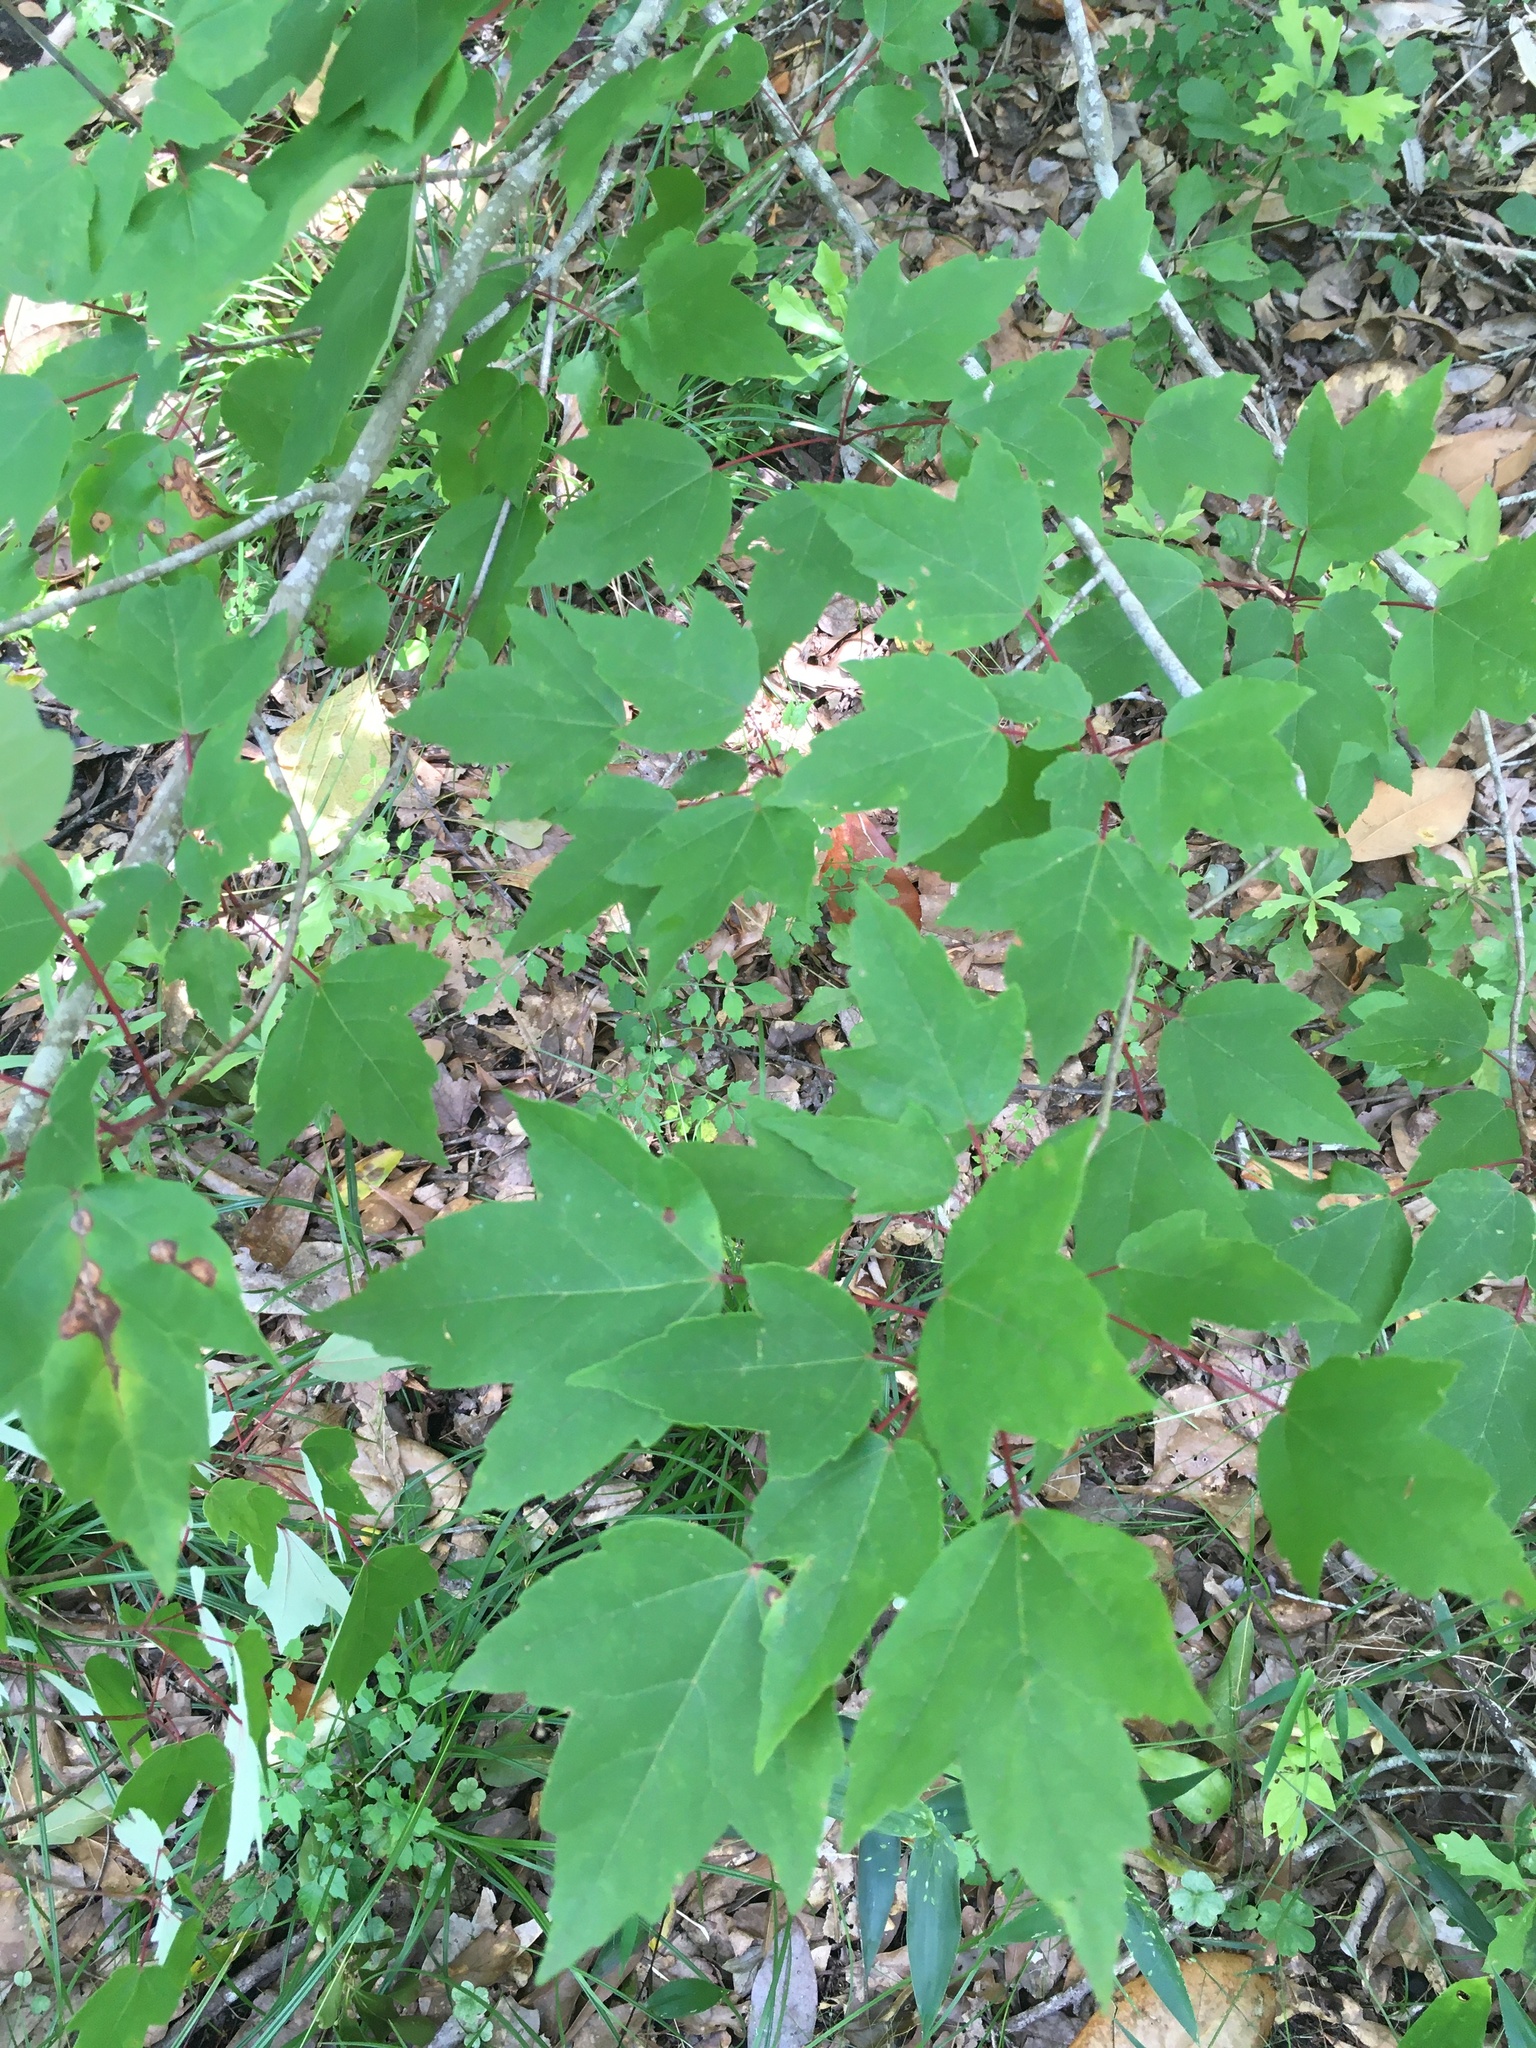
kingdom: Plantae
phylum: Tracheophyta
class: Magnoliopsida
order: Sapindales
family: Sapindaceae
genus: Acer
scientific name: Acer rubrum
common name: Red maple
